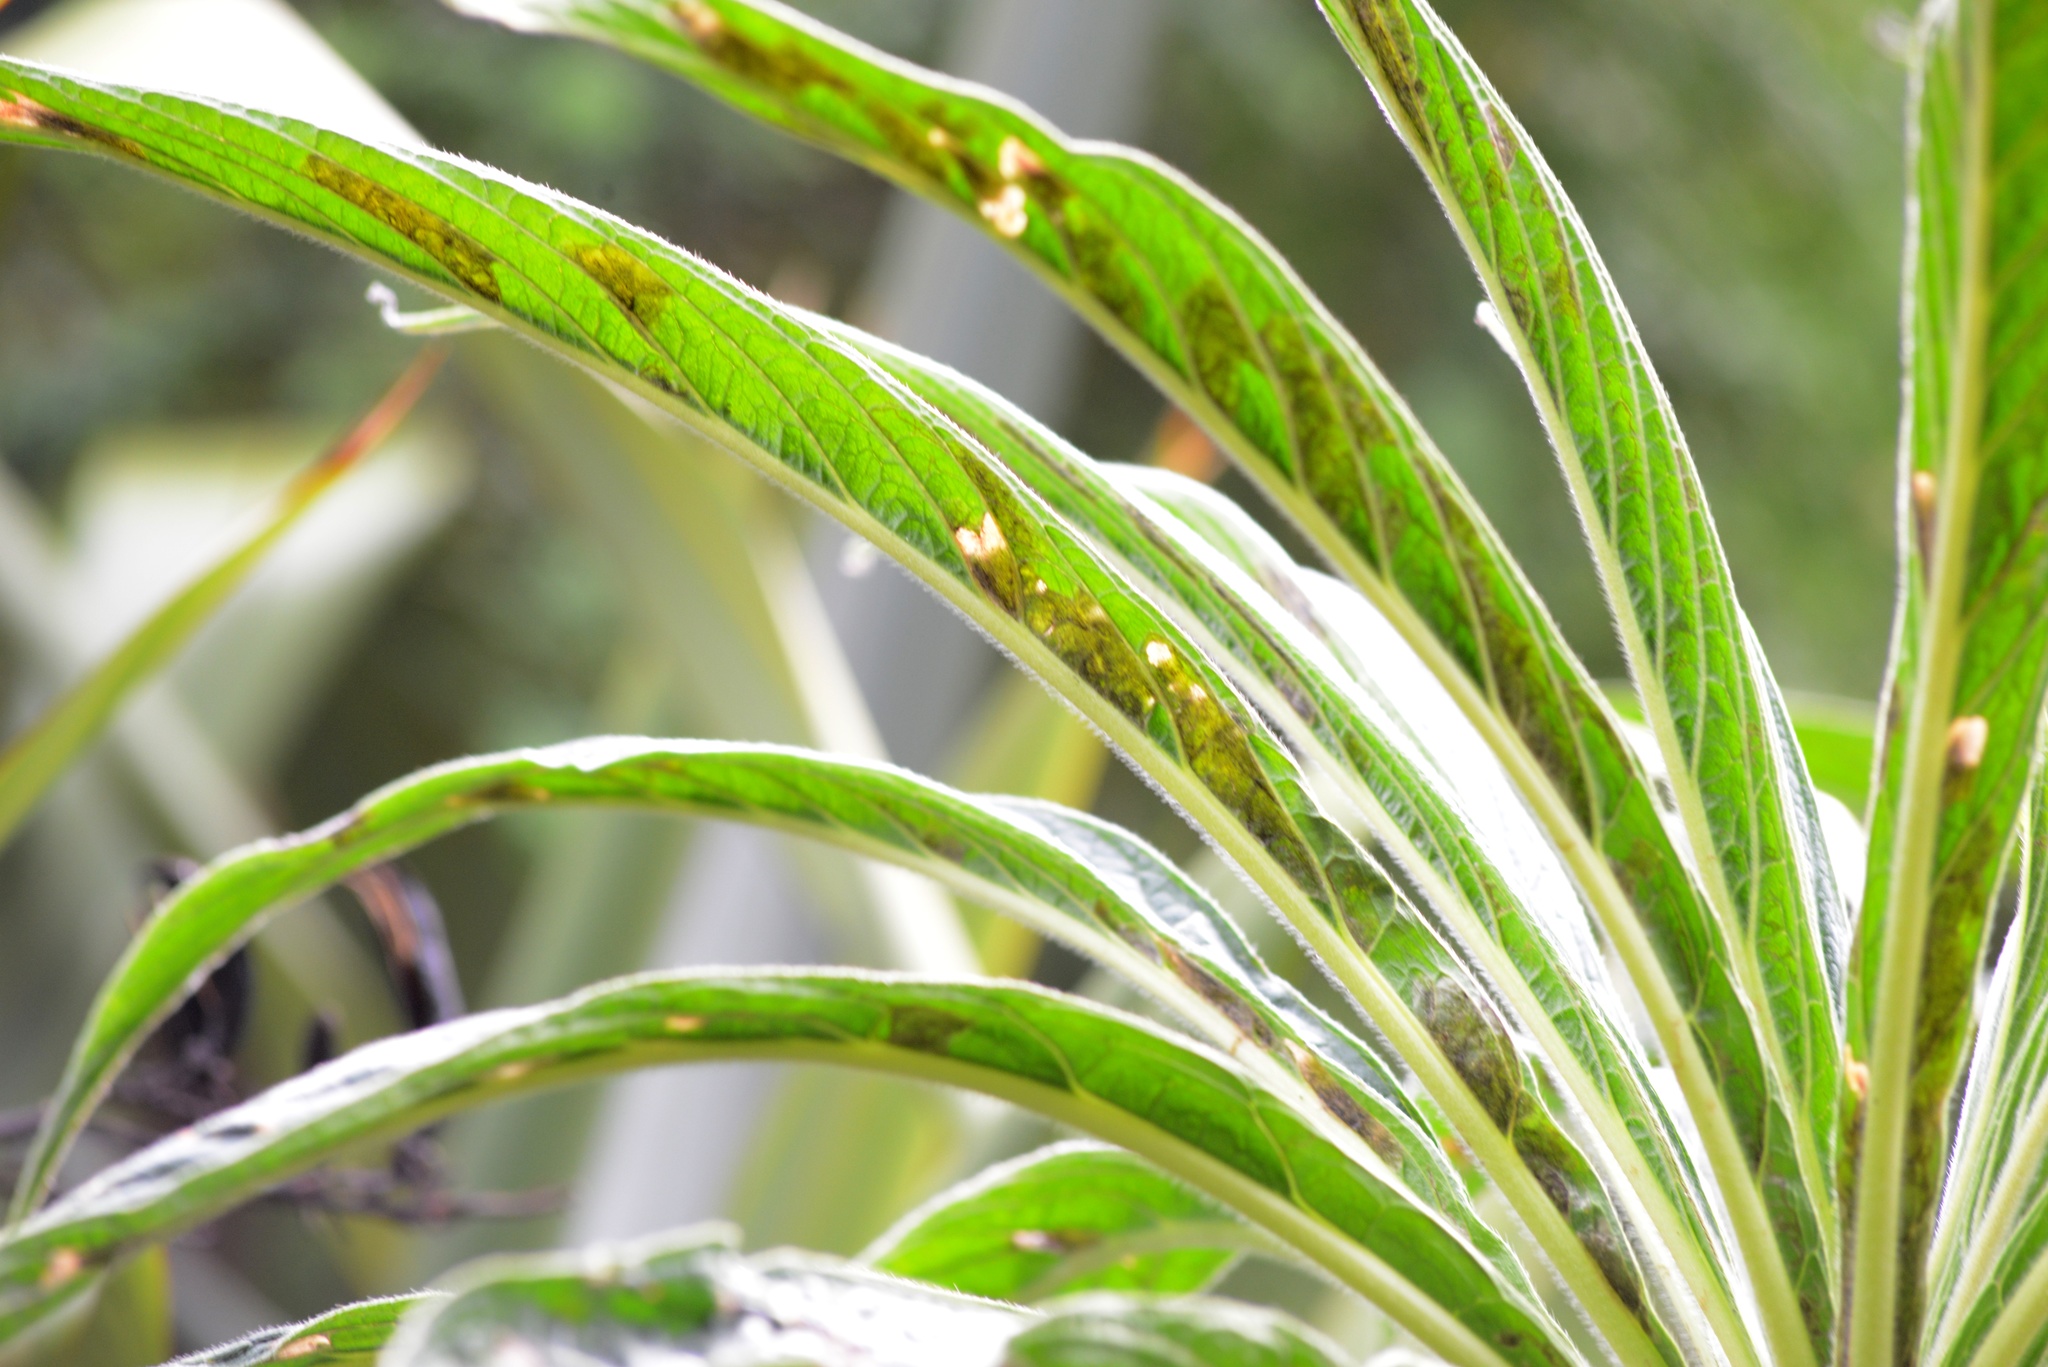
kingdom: Animalia
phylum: Arthropoda
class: Insecta
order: Lepidoptera
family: Gracillariidae
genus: Dialectica
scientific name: Dialectica scalariella
